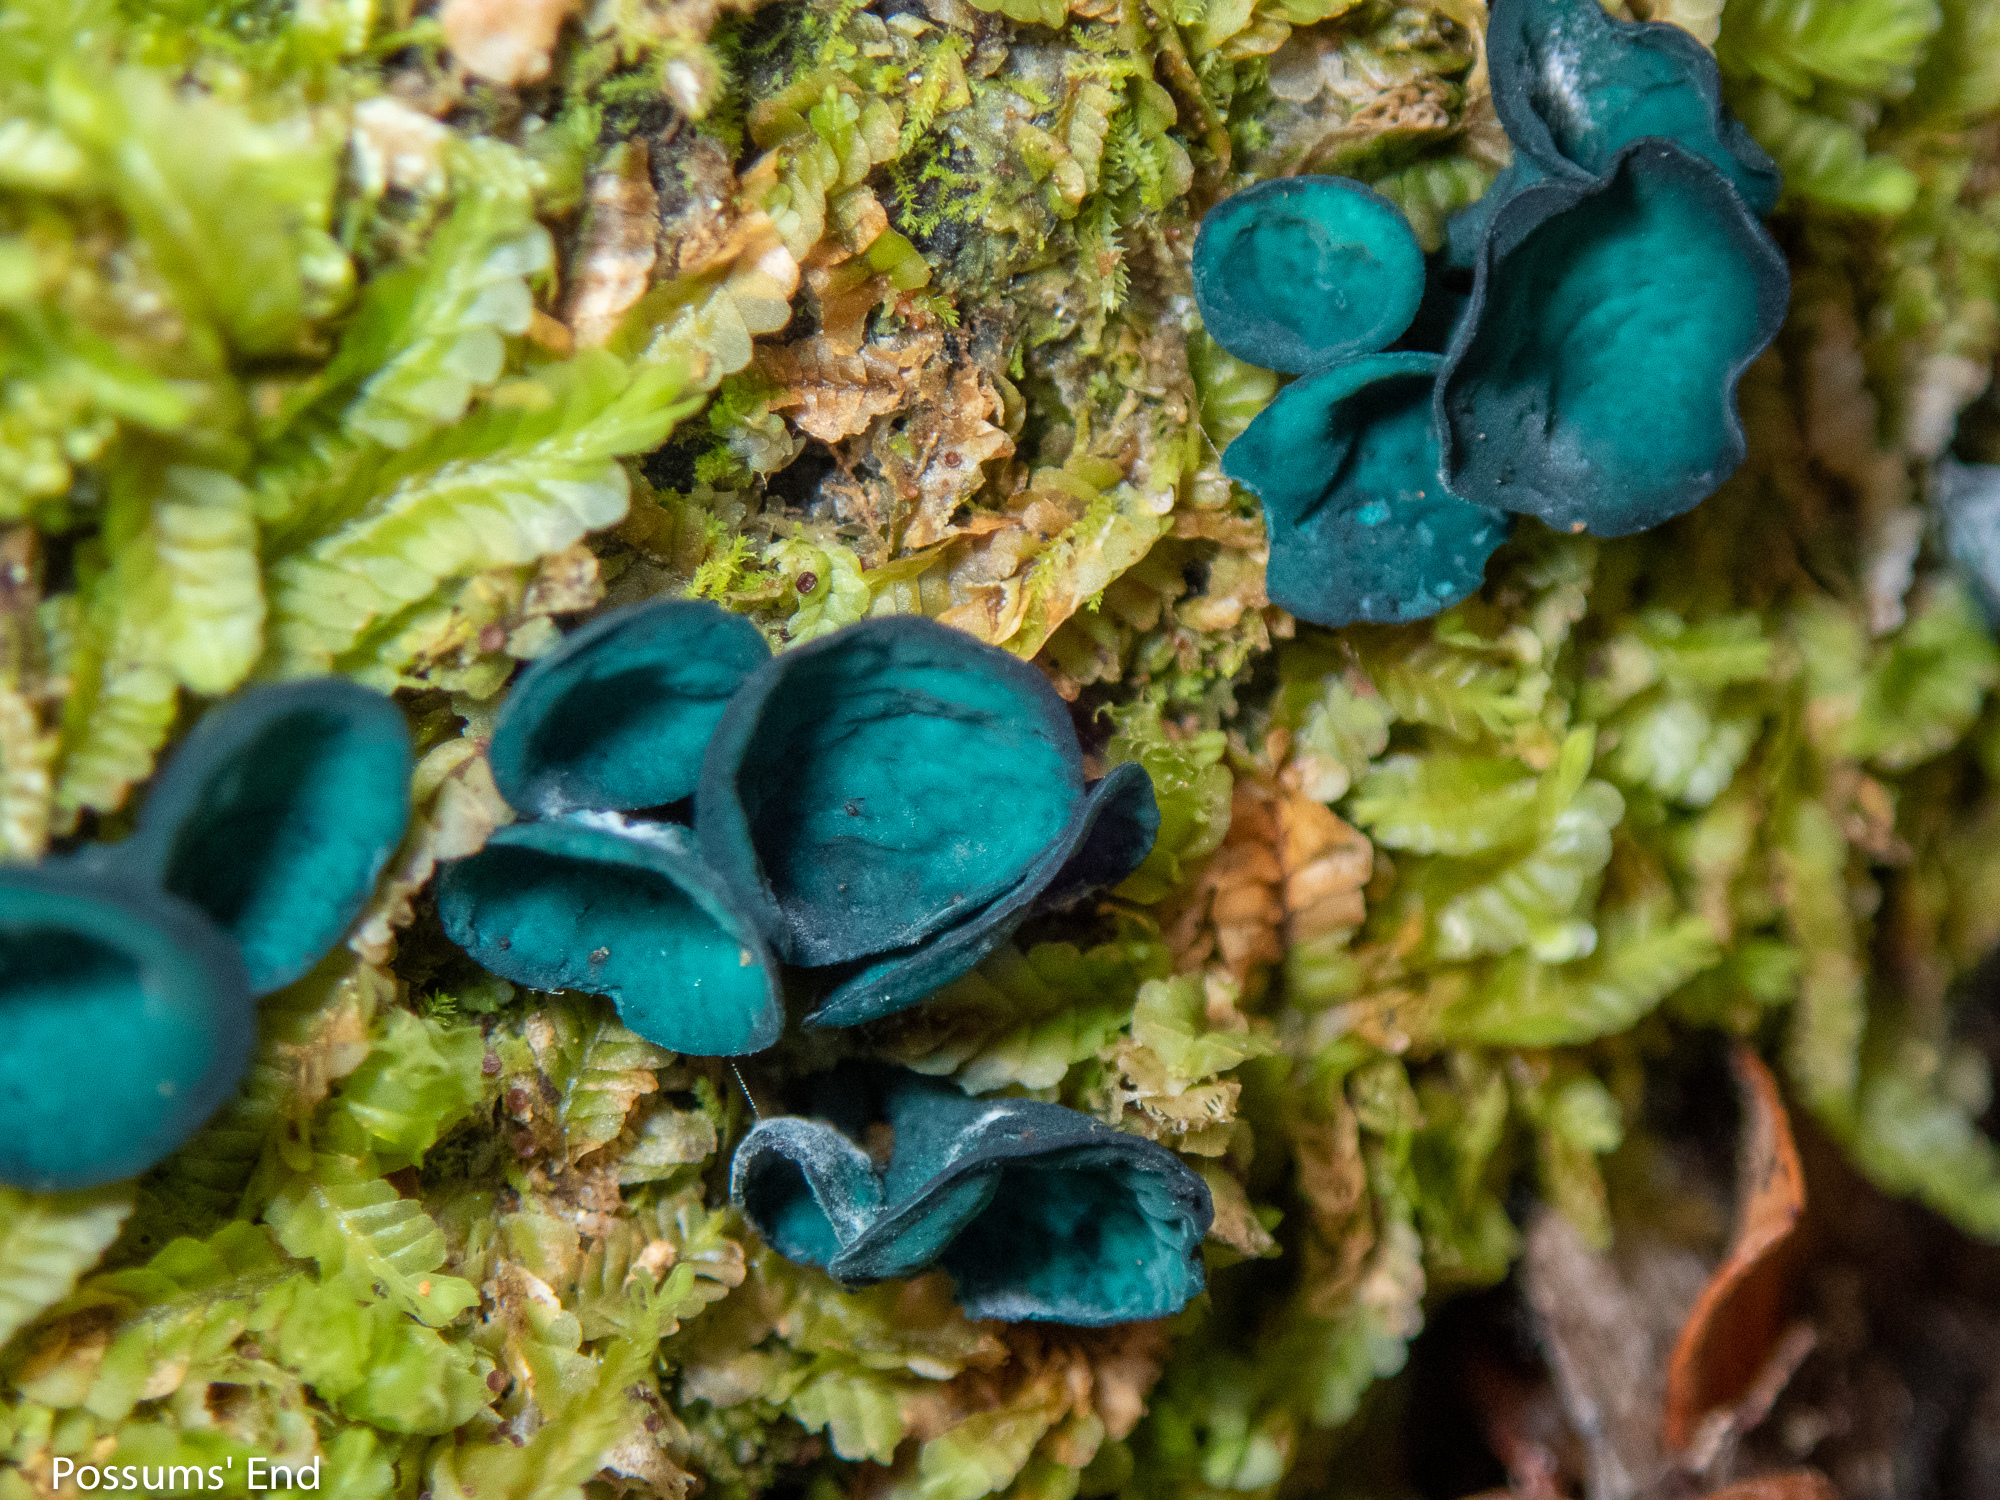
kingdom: Fungi
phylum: Ascomycota
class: Leotiomycetes
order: Helotiales
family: Chlorociboriaceae
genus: Chlorociboria
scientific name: Chlorociboria
